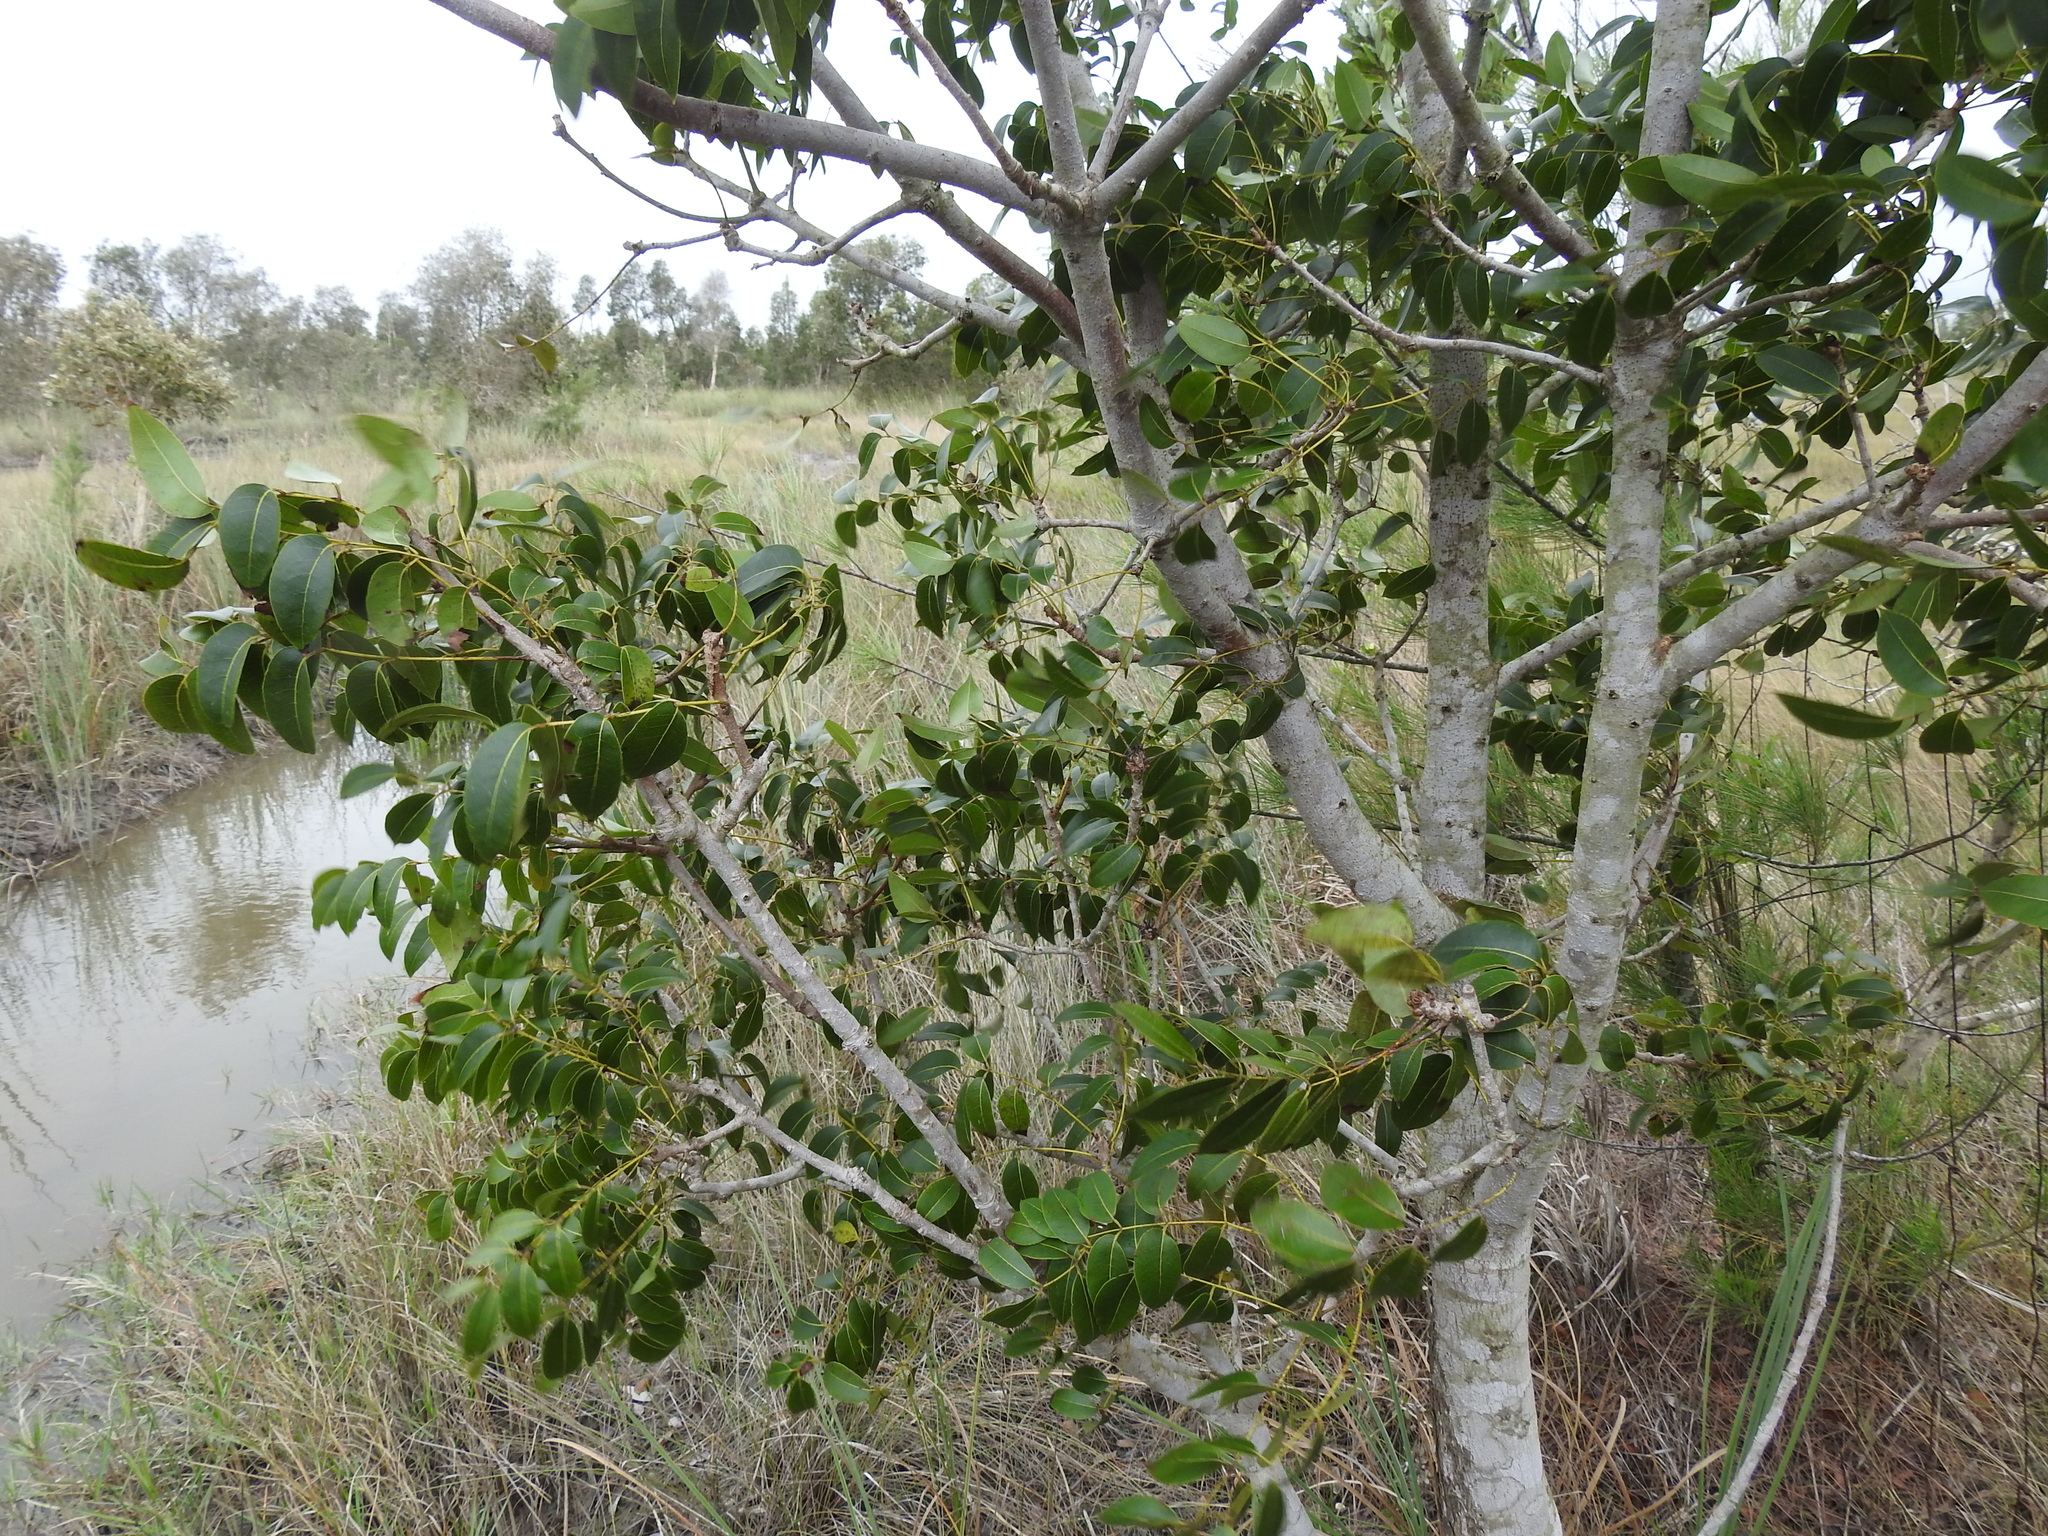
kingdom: Plantae
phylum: Tracheophyta
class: Magnoliopsida
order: Sapindales
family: Meliaceae
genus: Swietenia
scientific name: Swietenia mahagoni
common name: West indian mahogany
